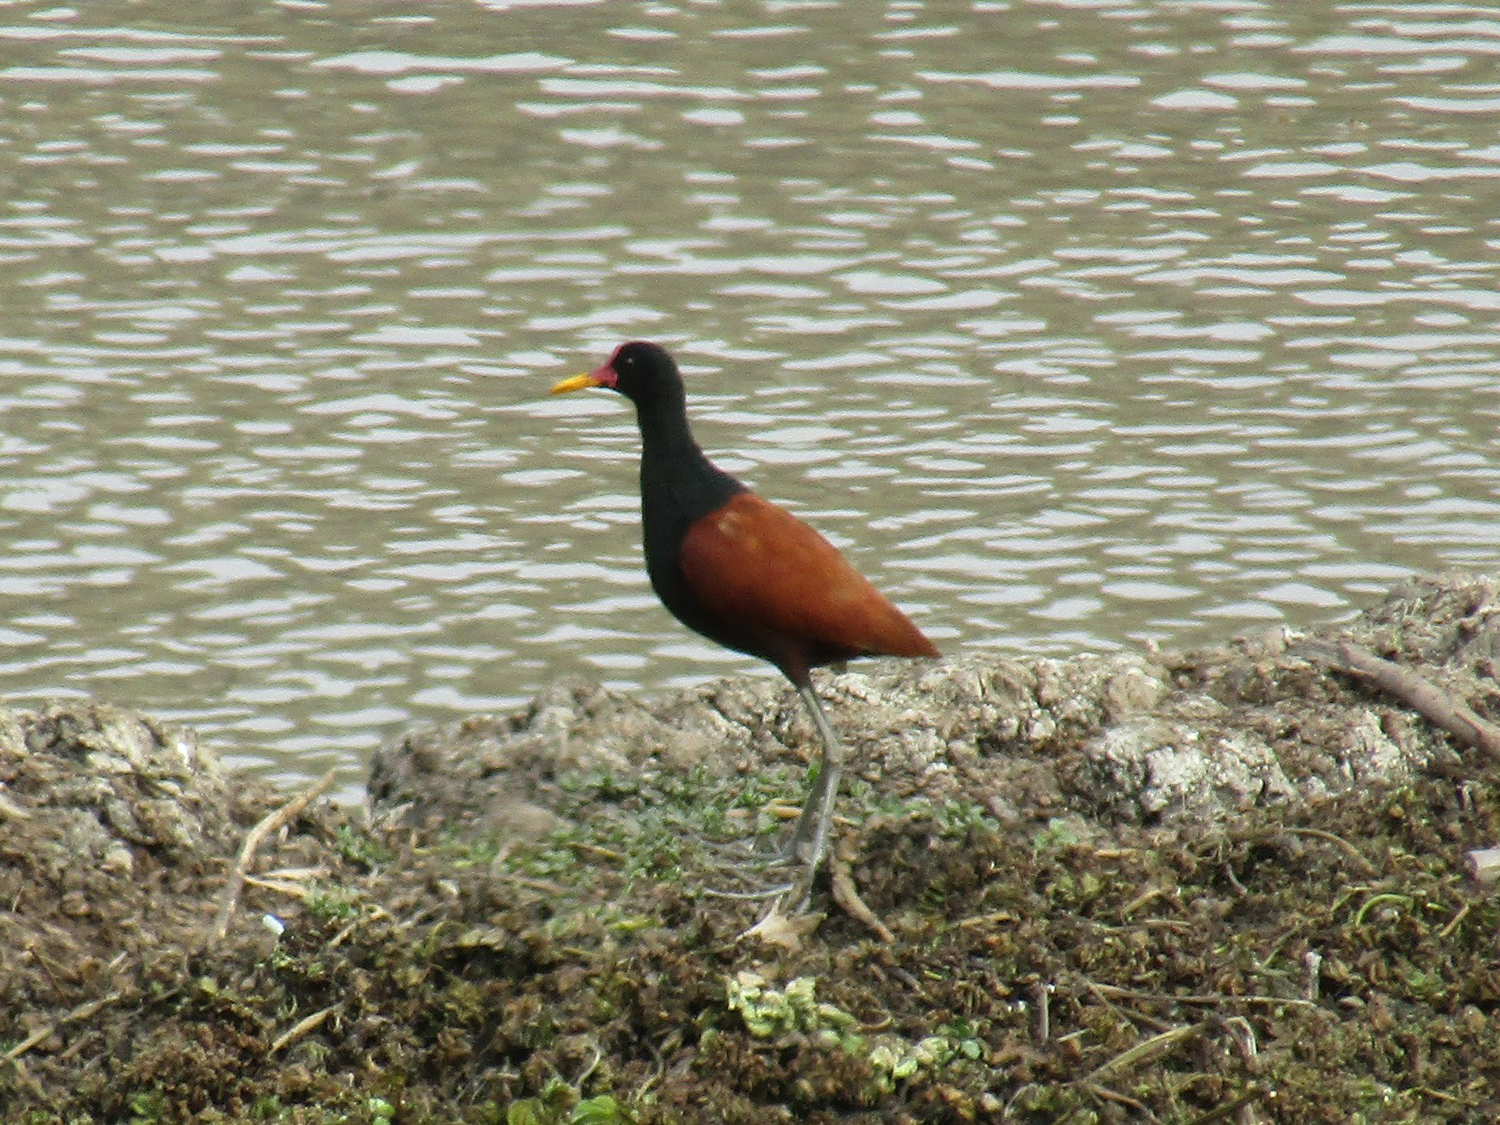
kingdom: Animalia
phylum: Chordata
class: Aves
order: Charadriiformes
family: Jacanidae
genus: Jacana
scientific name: Jacana jacana
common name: Wattled jacana
